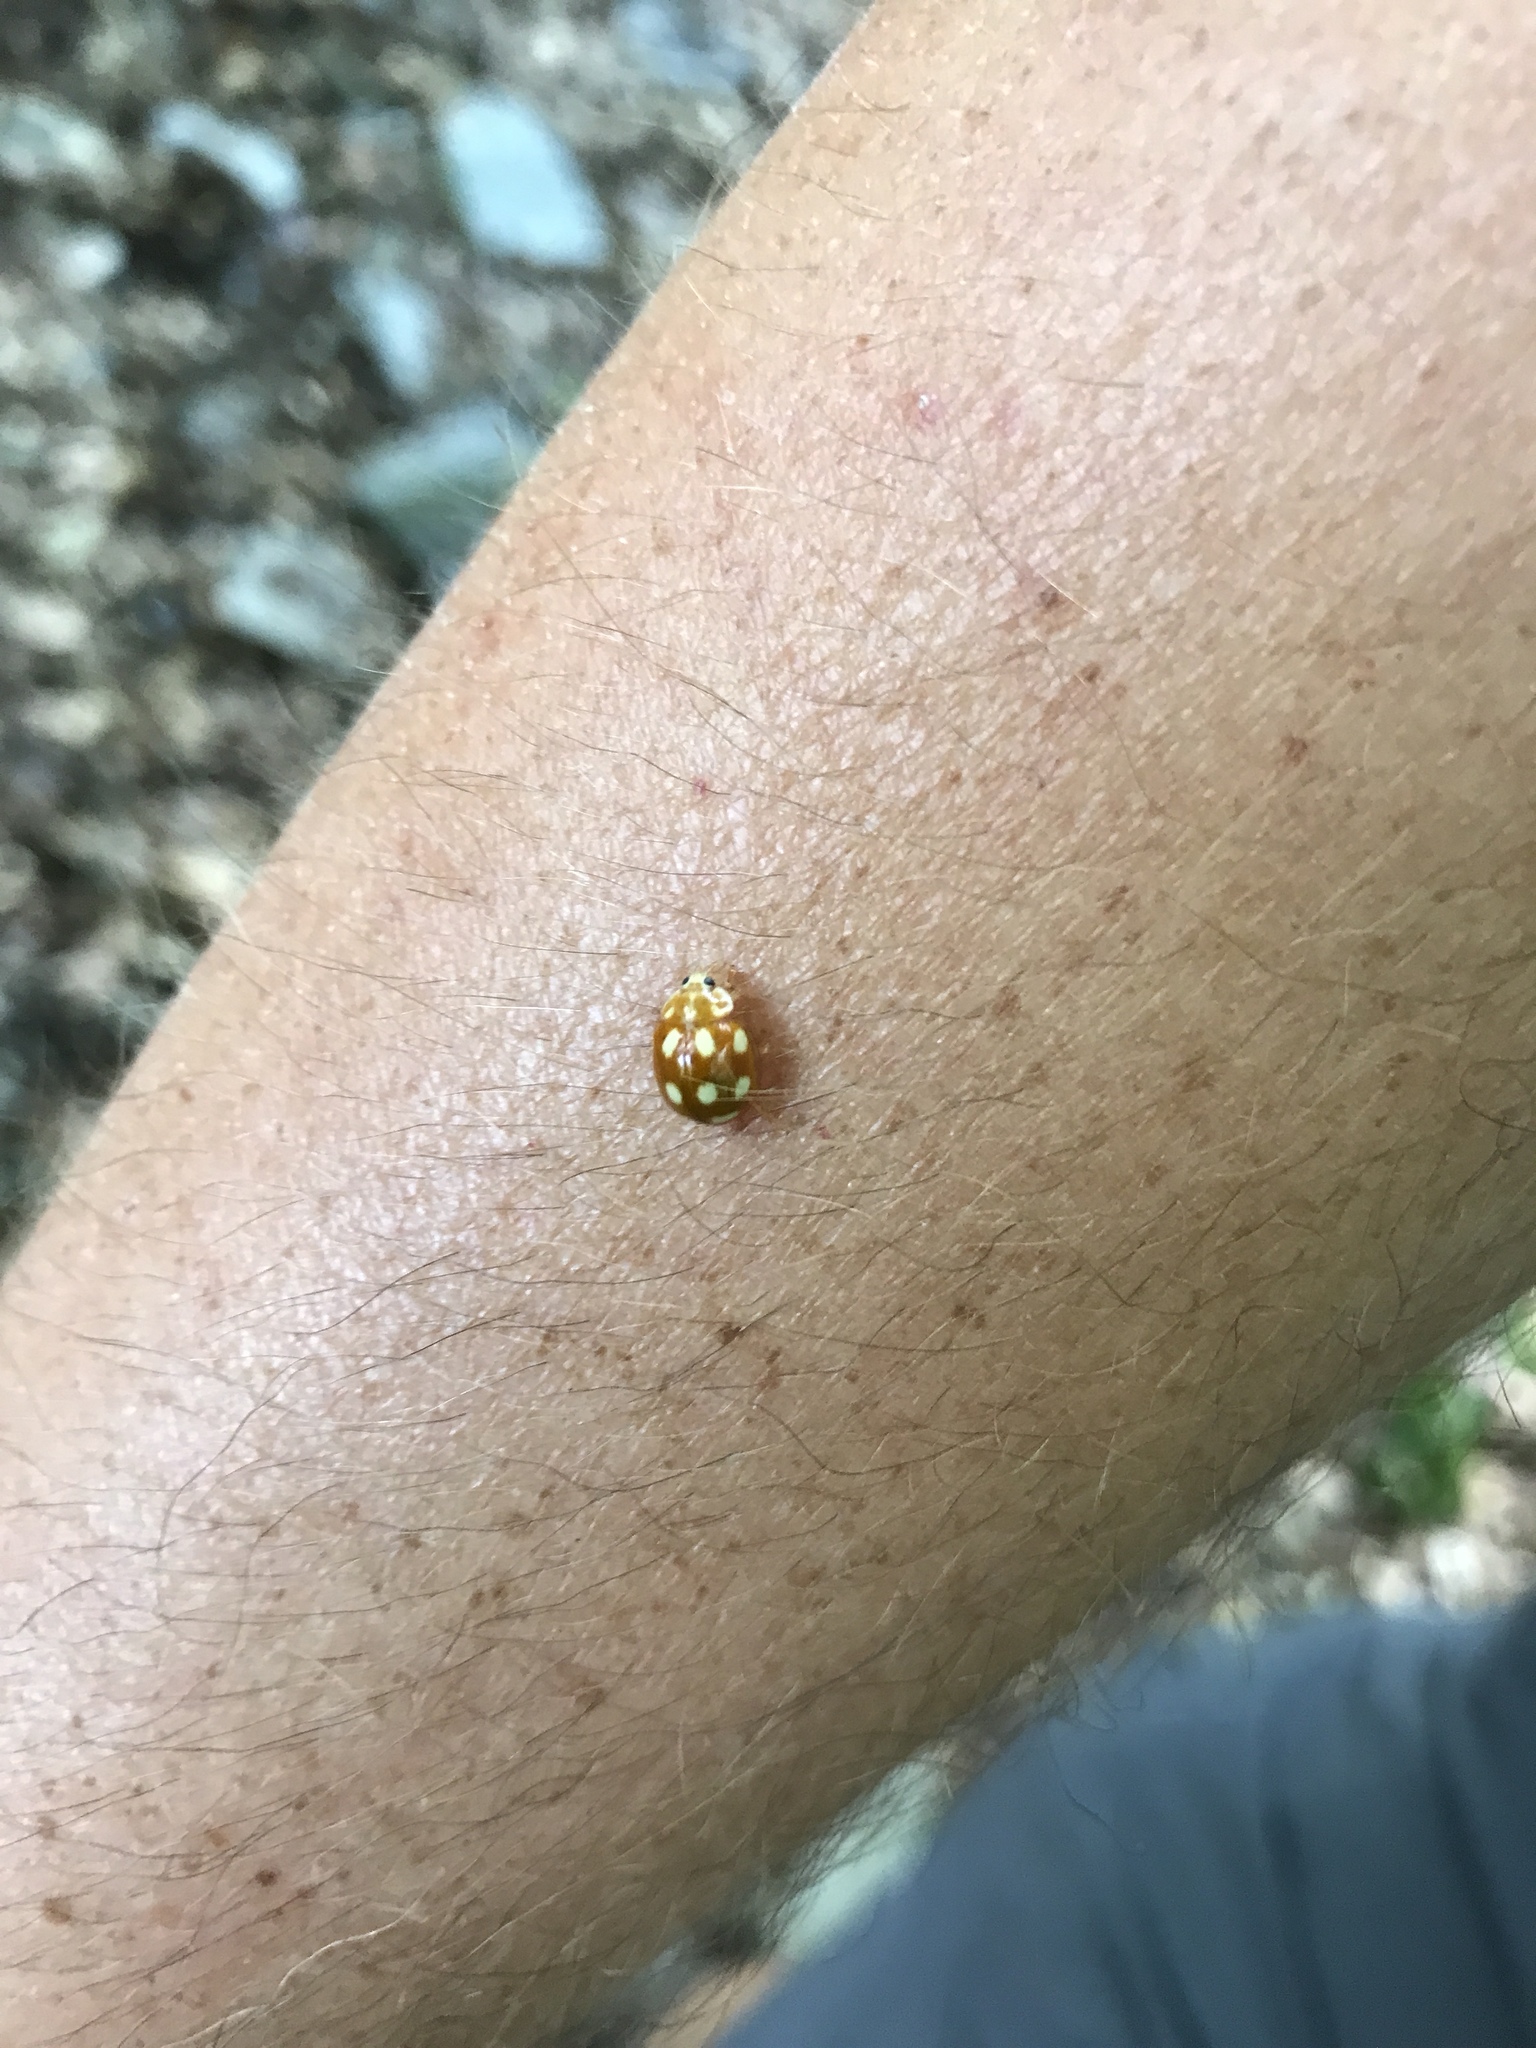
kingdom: Animalia
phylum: Arthropoda
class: Insecta
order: Coleoptera
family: Coccinellidae
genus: Calvia
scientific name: Calvia decemguttata
